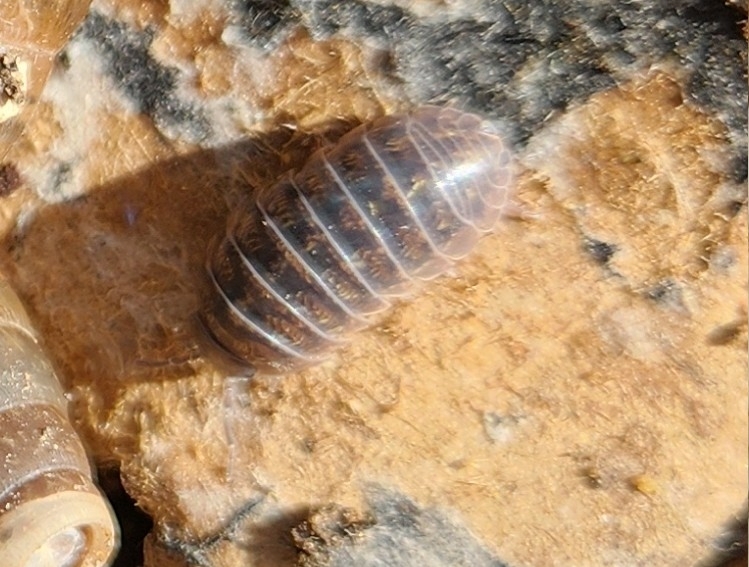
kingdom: Animalia
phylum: Arthropoda
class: Malacostraca
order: Isopoda
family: Armadillidiidae
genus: Armadillidium
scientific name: Armadillidium vulgare
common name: Common pill woodlouse
